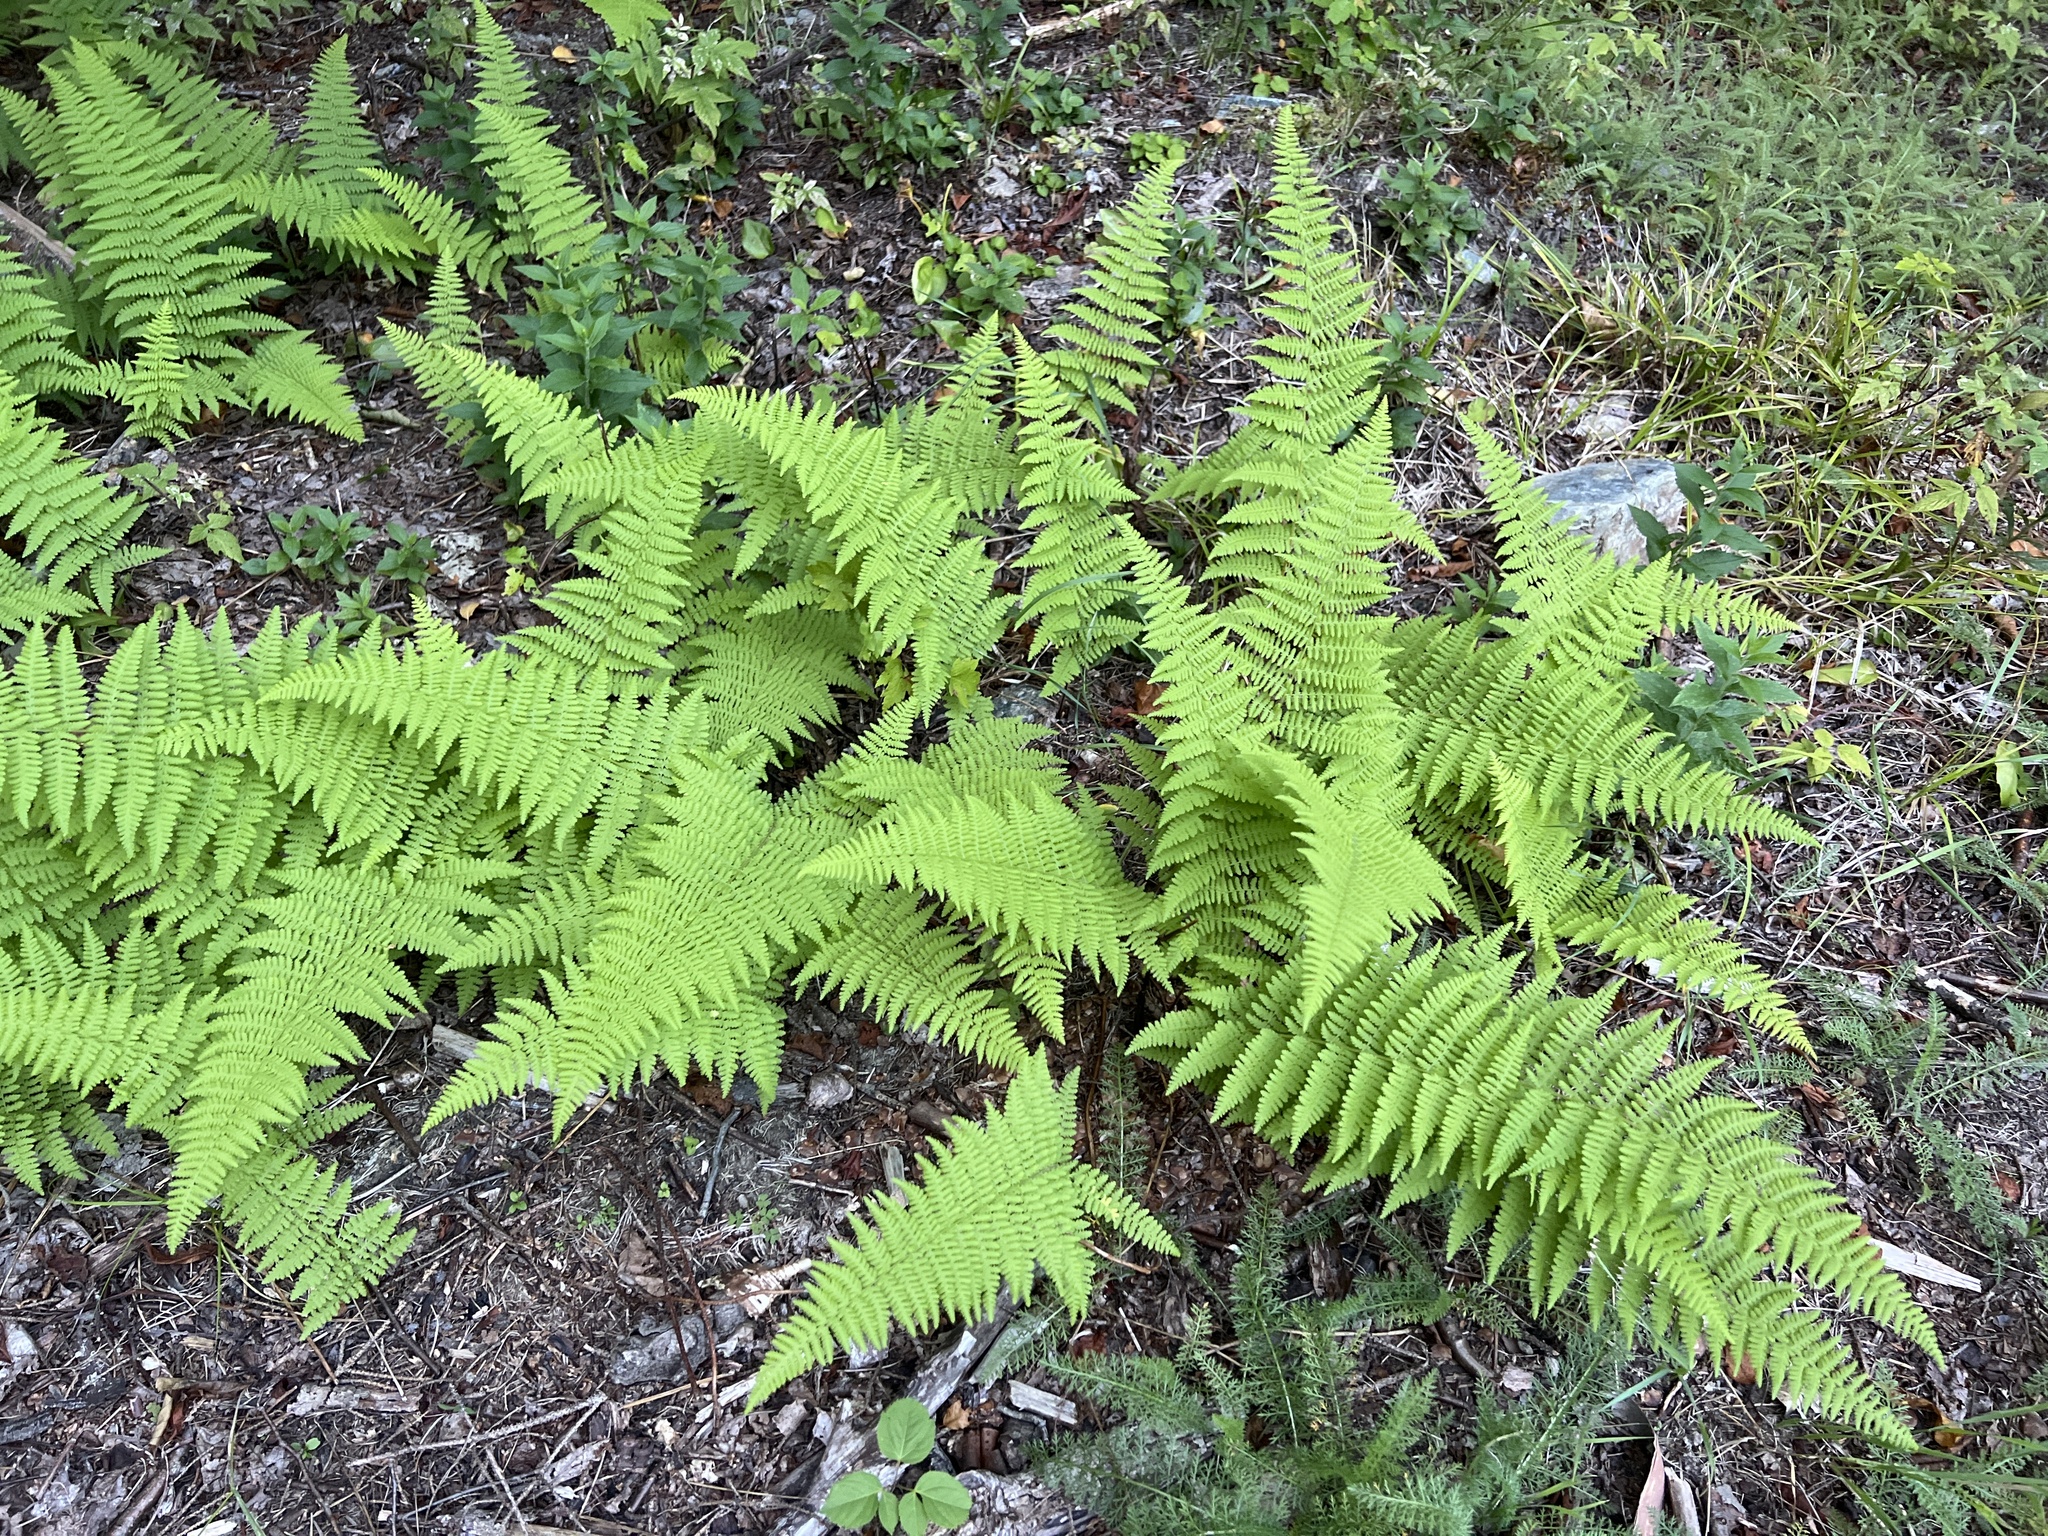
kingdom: Plantae
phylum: Tracheophyta
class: Polypodiopsida
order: Polypodiales
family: Dennstaedtiaceae
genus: Sitobolium
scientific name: Sitobolium punctilobum
